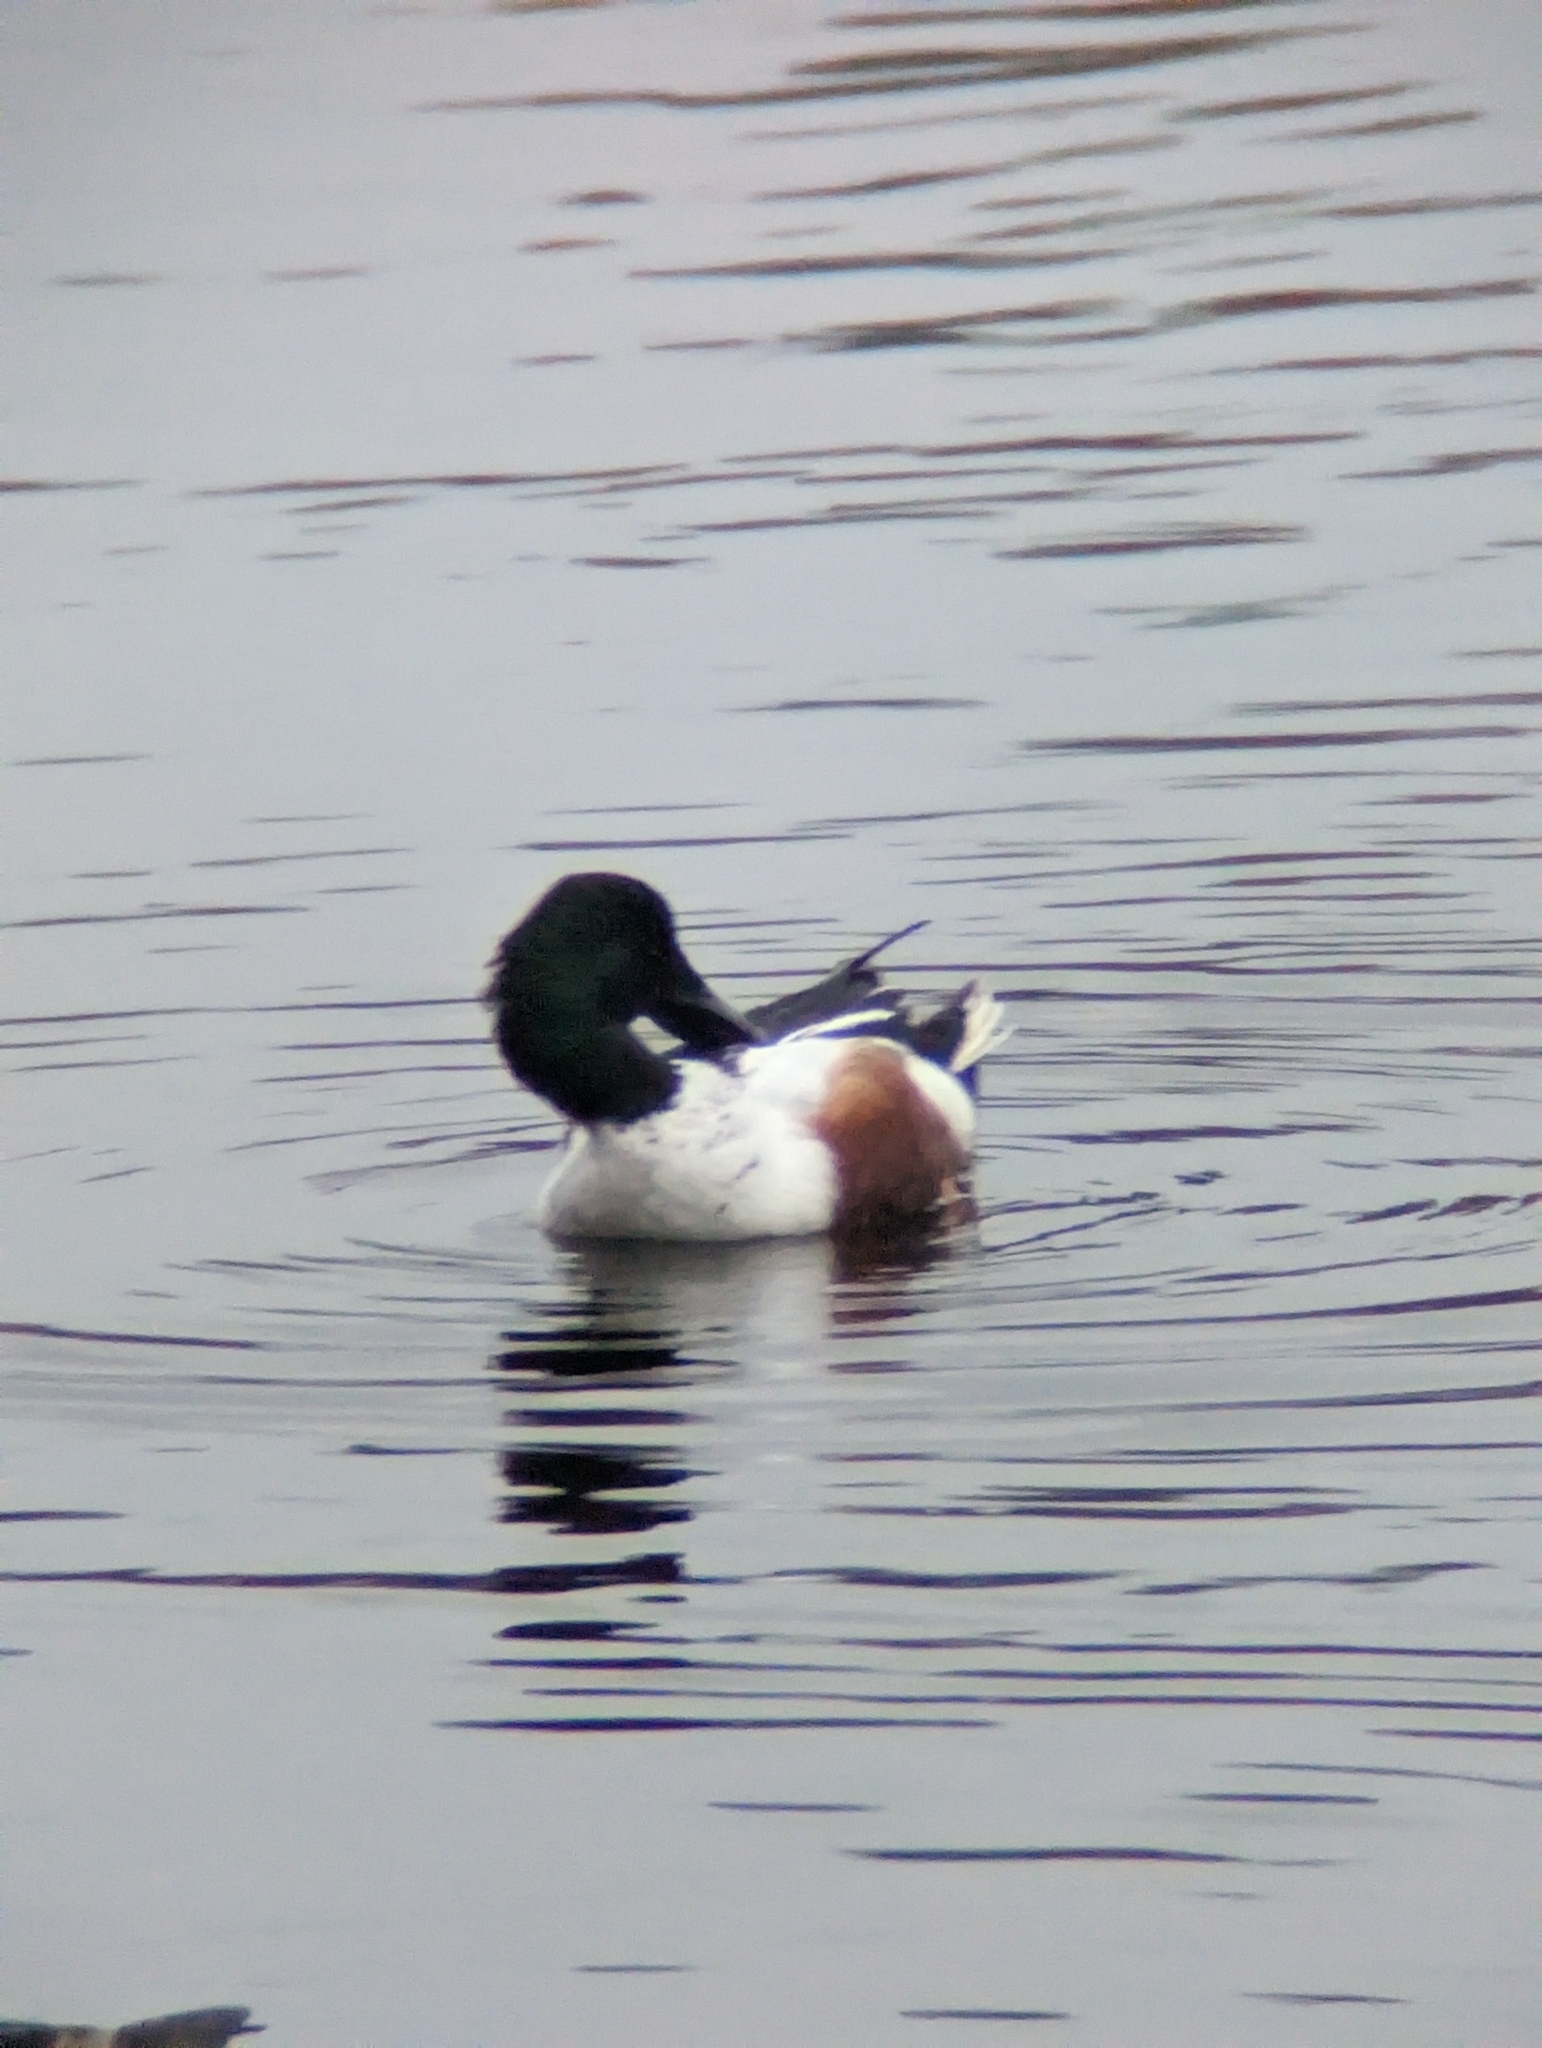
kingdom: Animalia
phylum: Chordata
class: Aves
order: Anseriformes
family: Anatidae
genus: Spatula
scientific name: Spatula clypeata
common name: Northern shoveler
